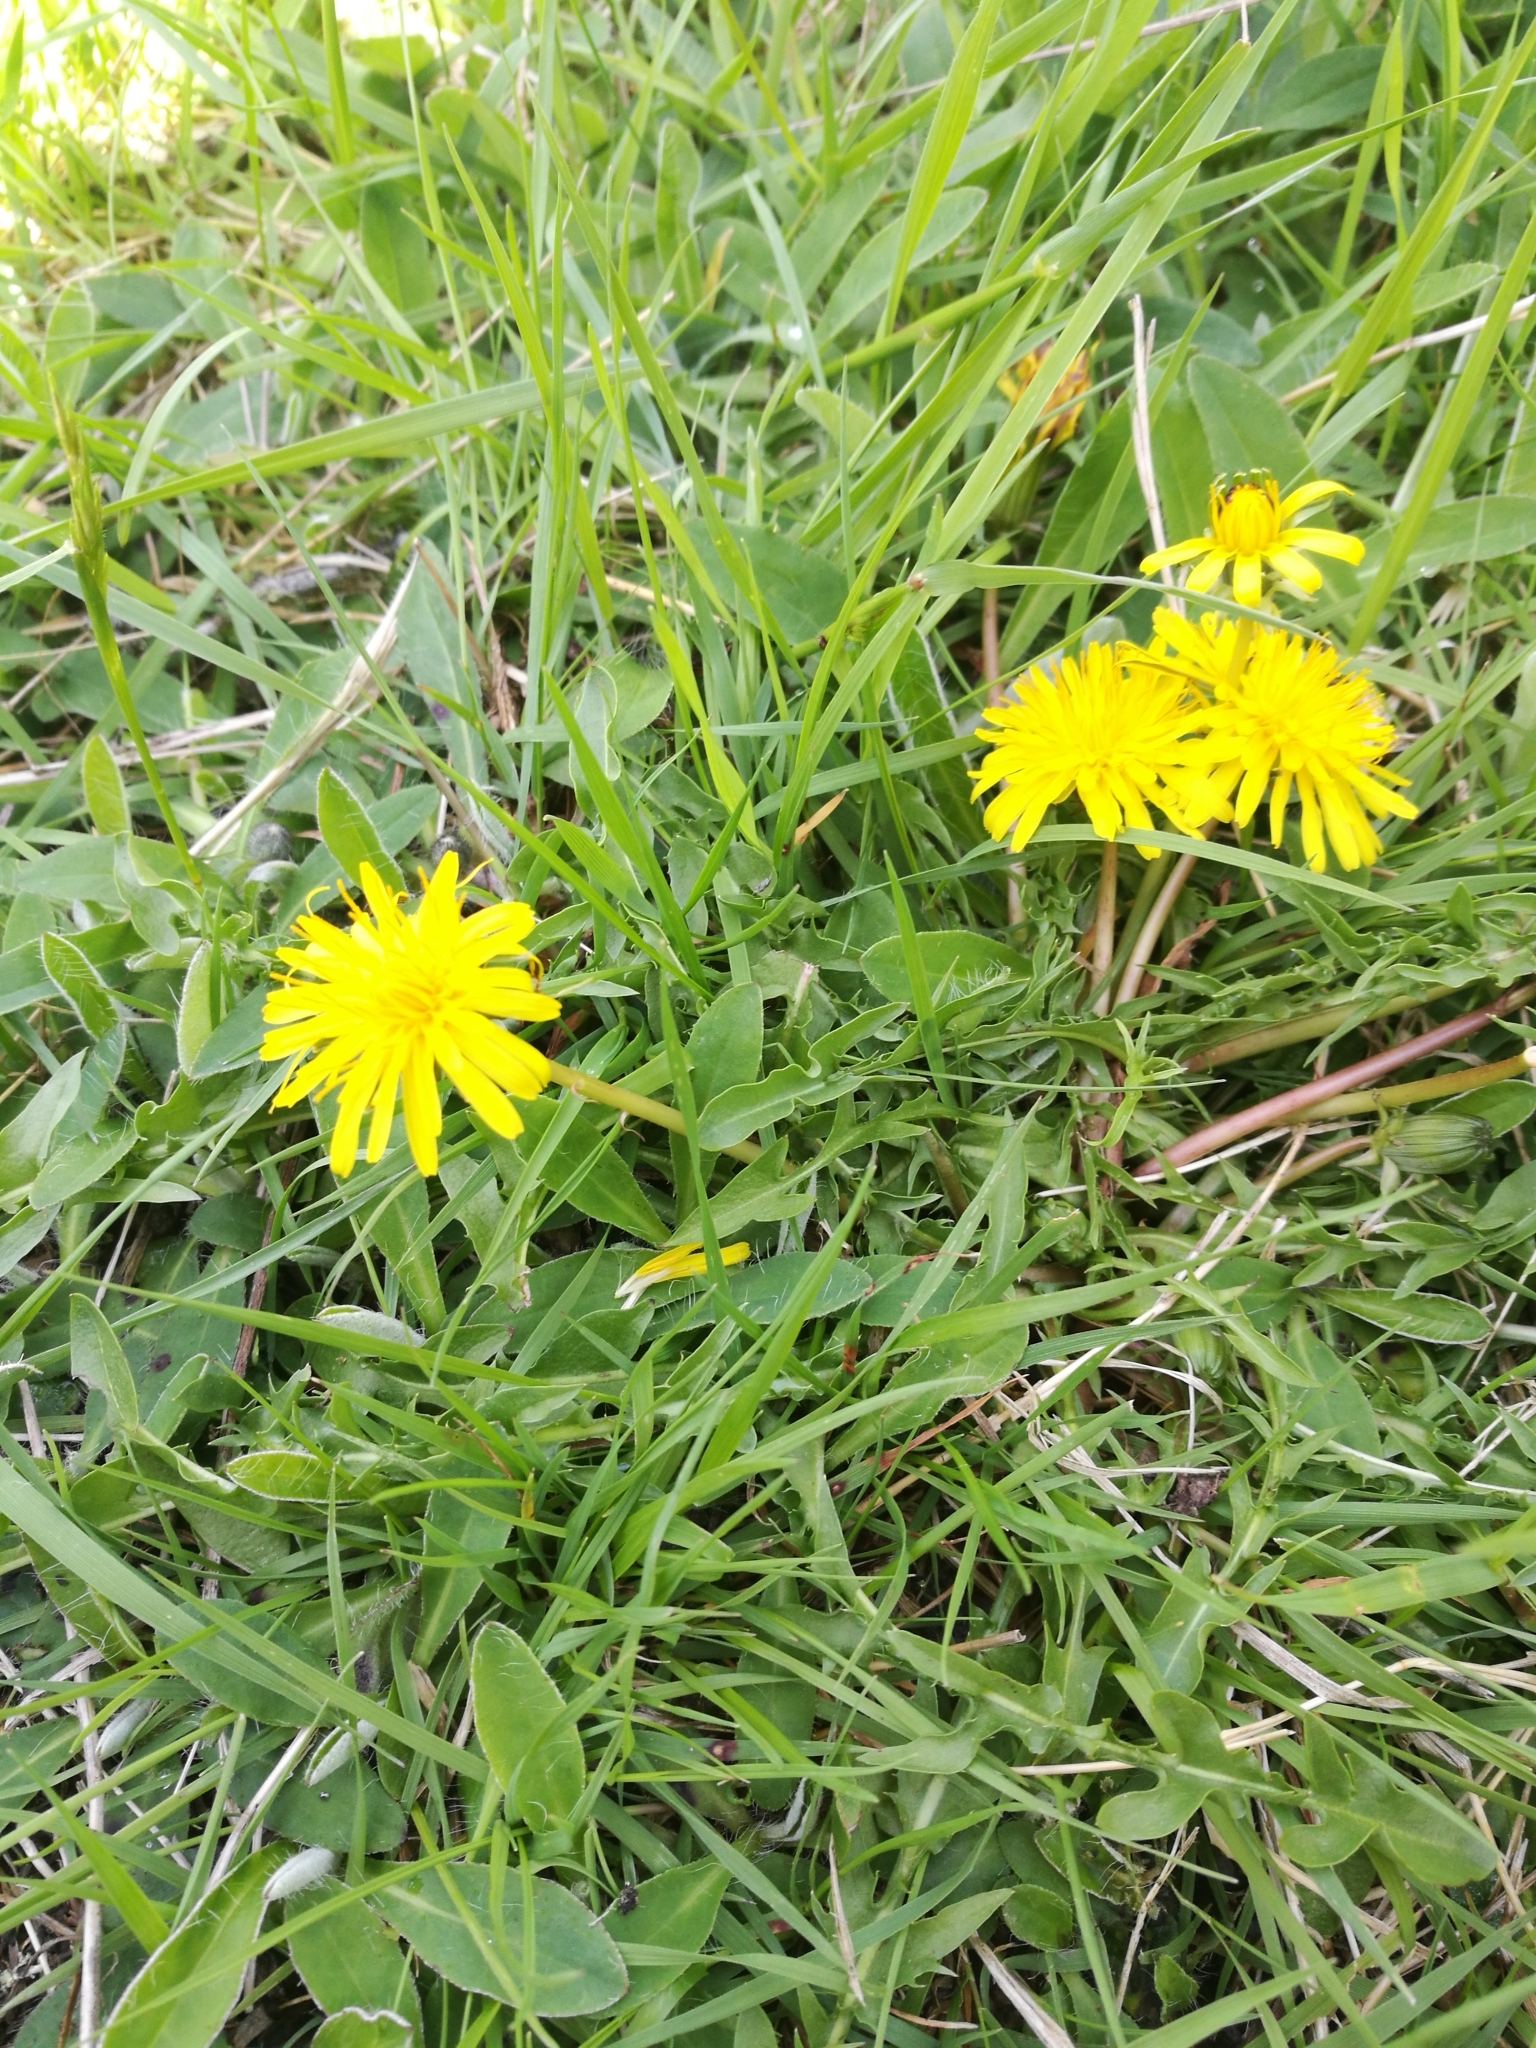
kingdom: Plantae
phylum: Tracheophyta
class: Magnoliopsida
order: Asterales
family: Asteraceae
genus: Taraxacum
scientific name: Taraxacum officinale
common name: Common dandelion
